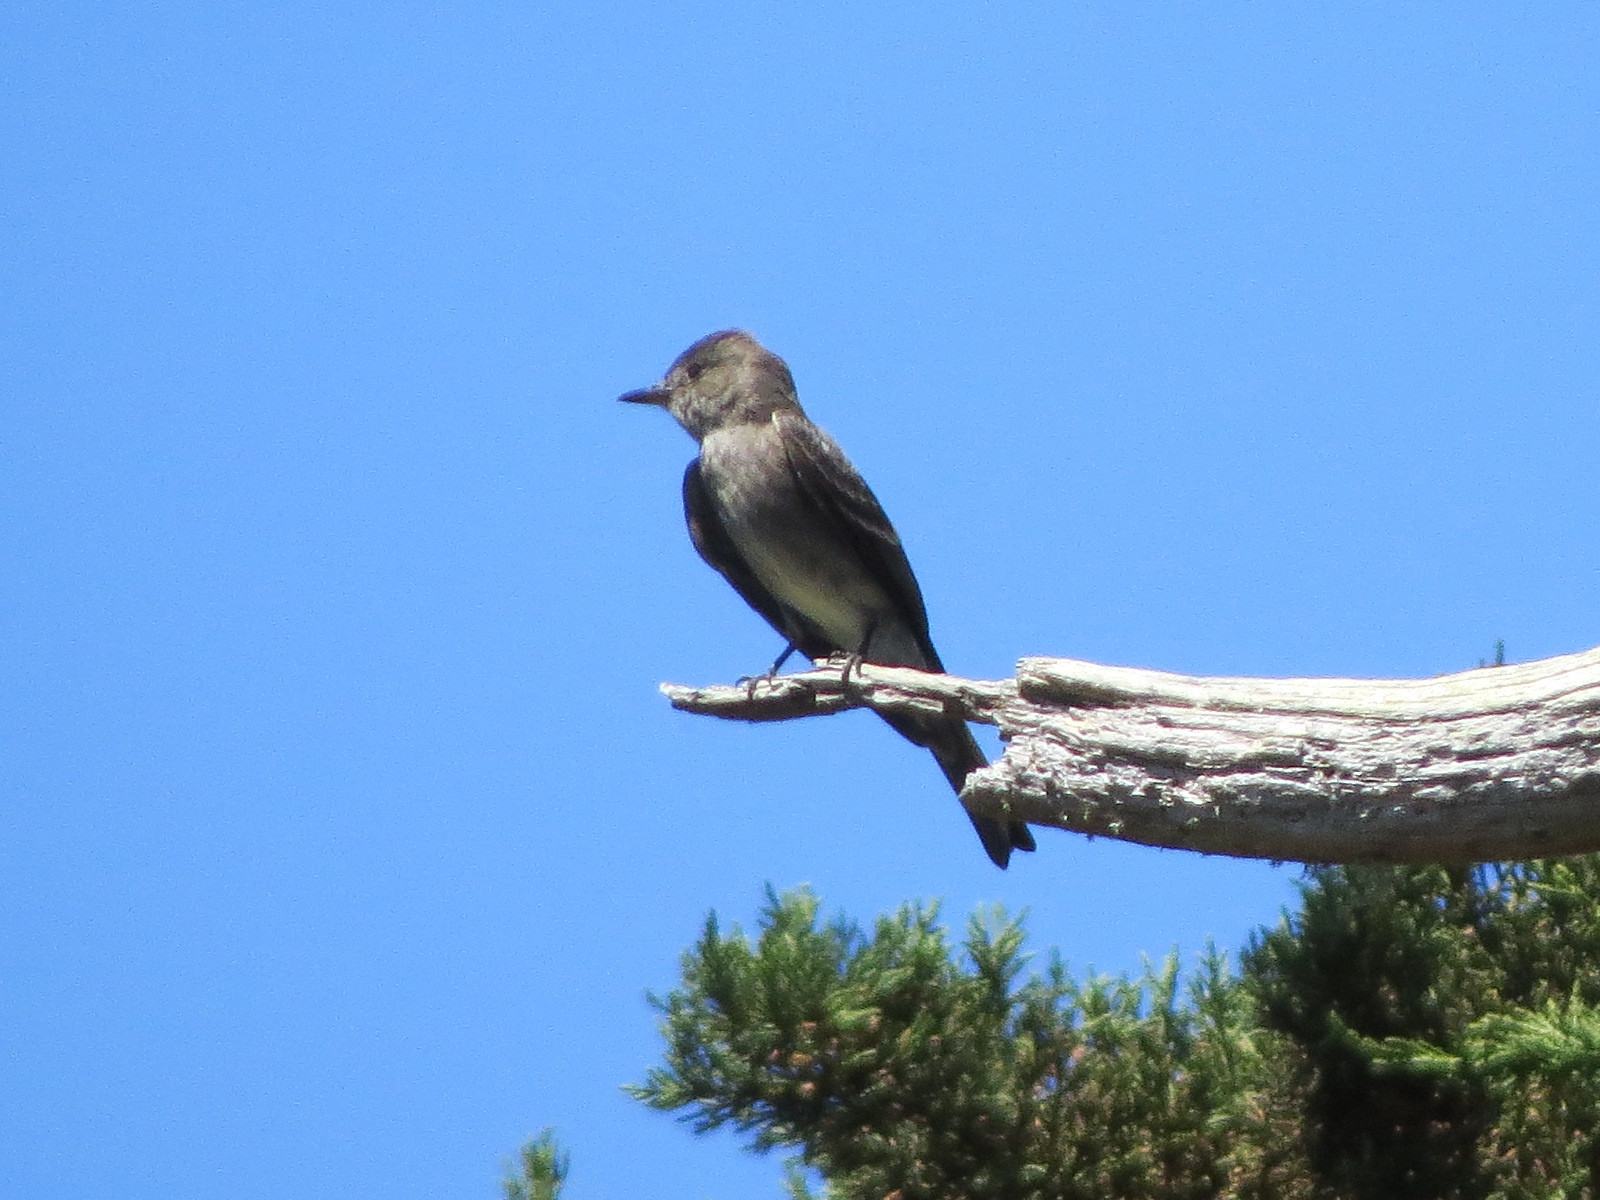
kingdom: Animalia
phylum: Chordata
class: Aves
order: Passeriformes
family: Tyrannidae
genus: Contopus
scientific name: Contopus sordidulus
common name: Western wood-pewee
